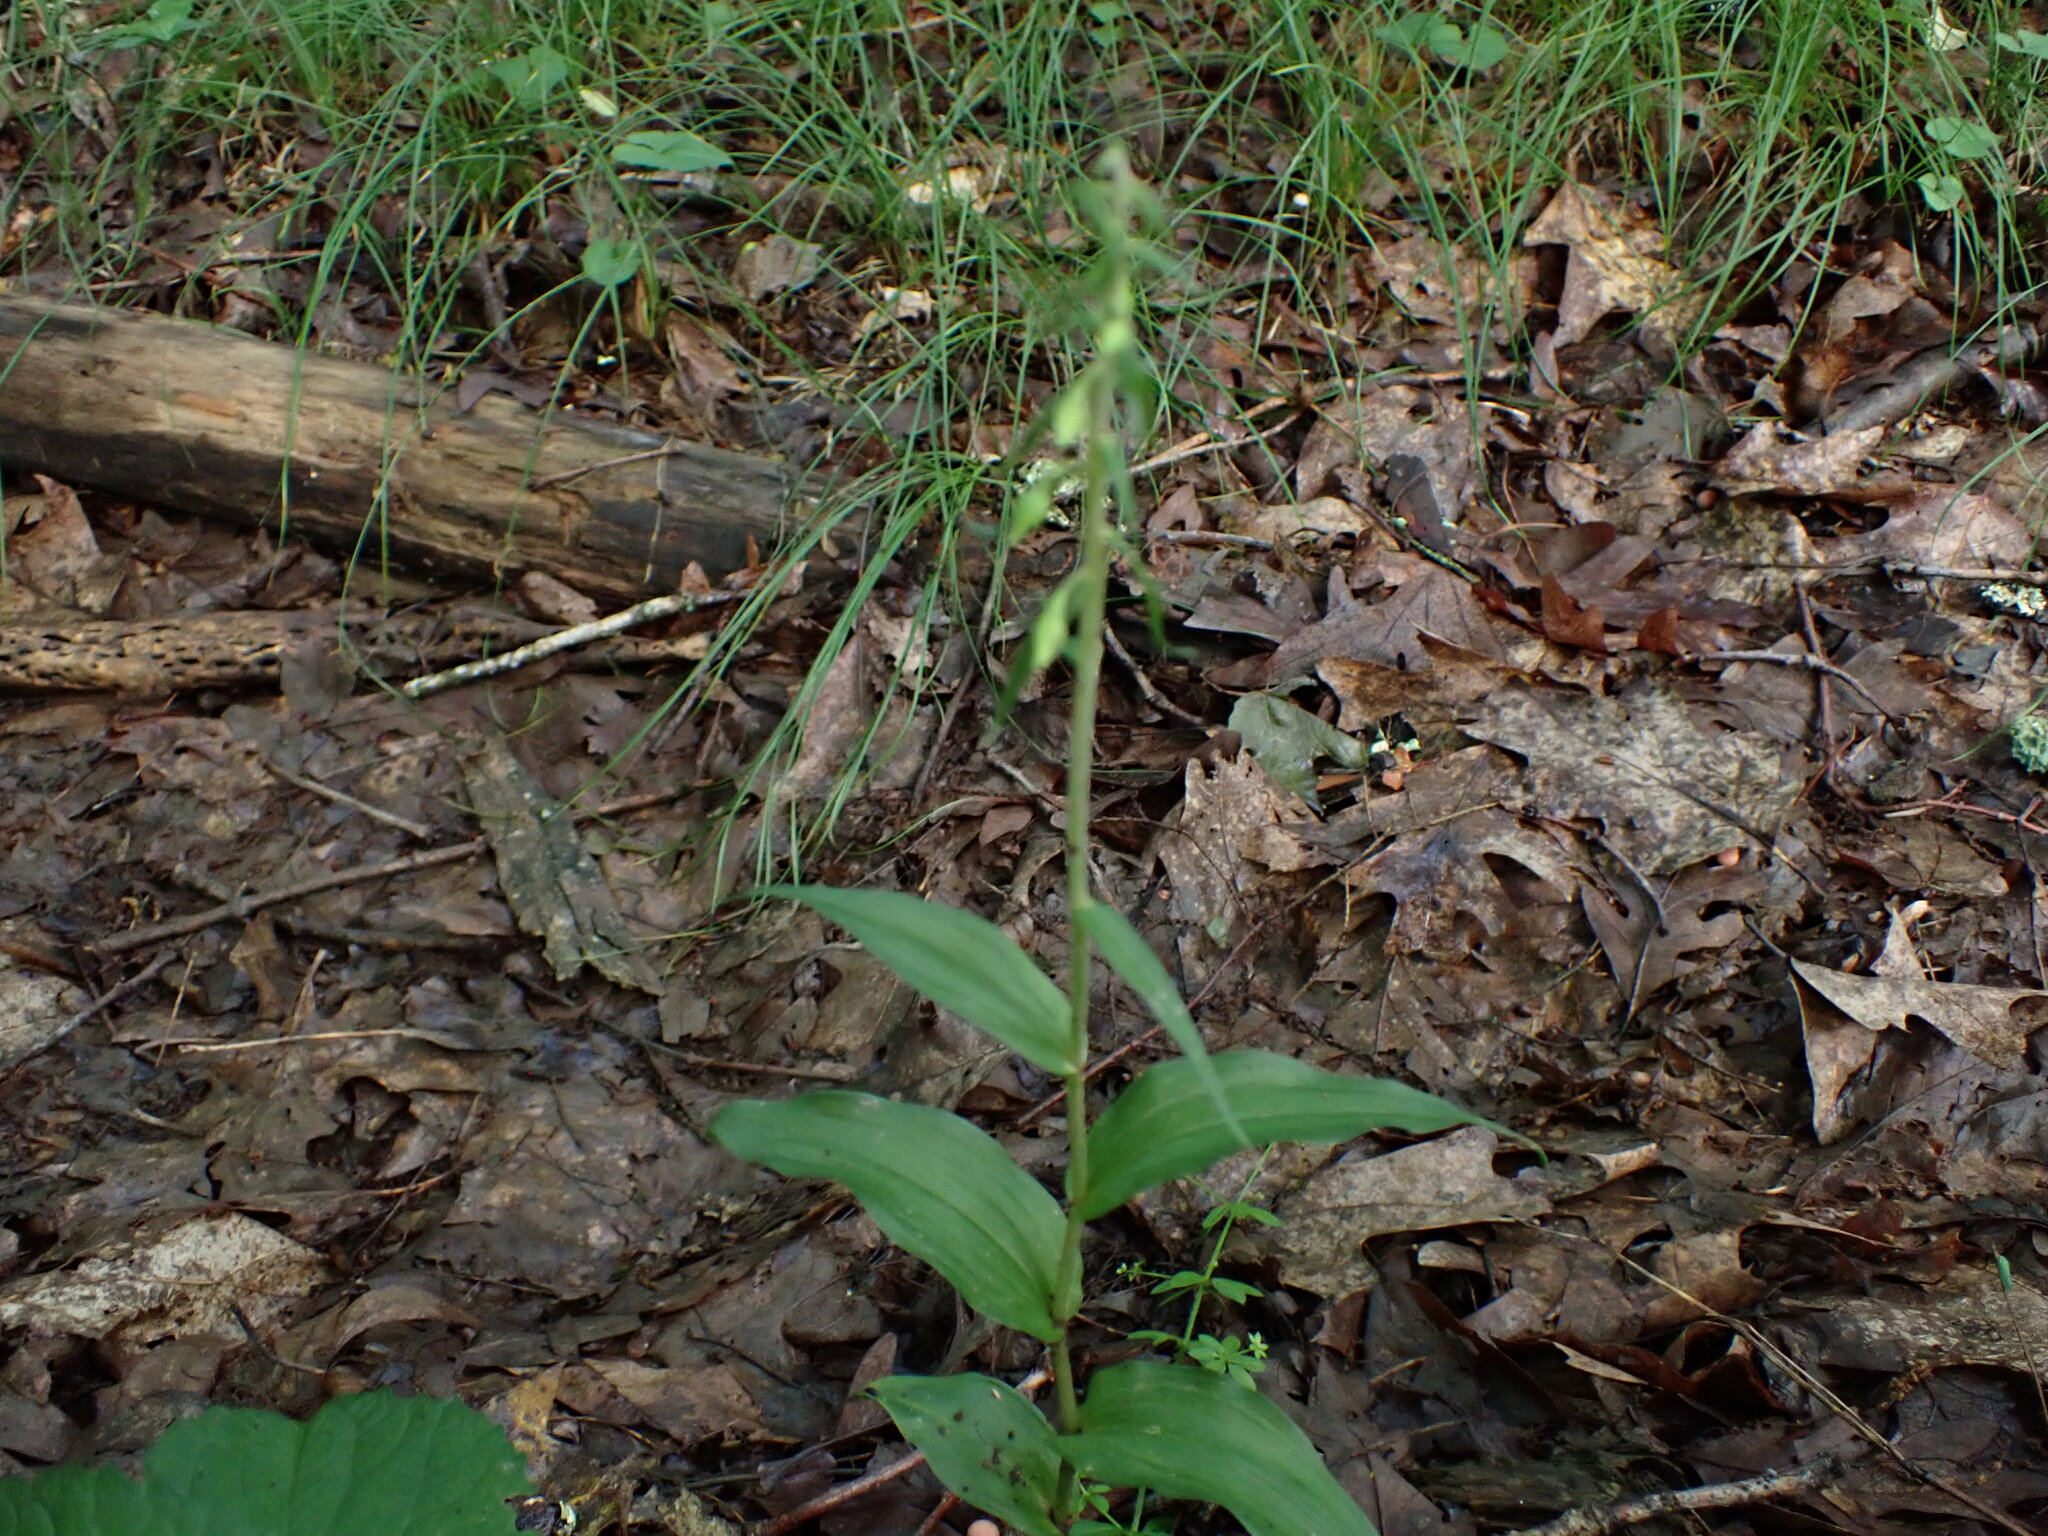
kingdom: Plantae
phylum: Tracheophyta
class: Liliopsida
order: Asparagales
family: Orchidaceae
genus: Epipactis
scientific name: Epipactis helleborine
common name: Broad-leaved helleborine
